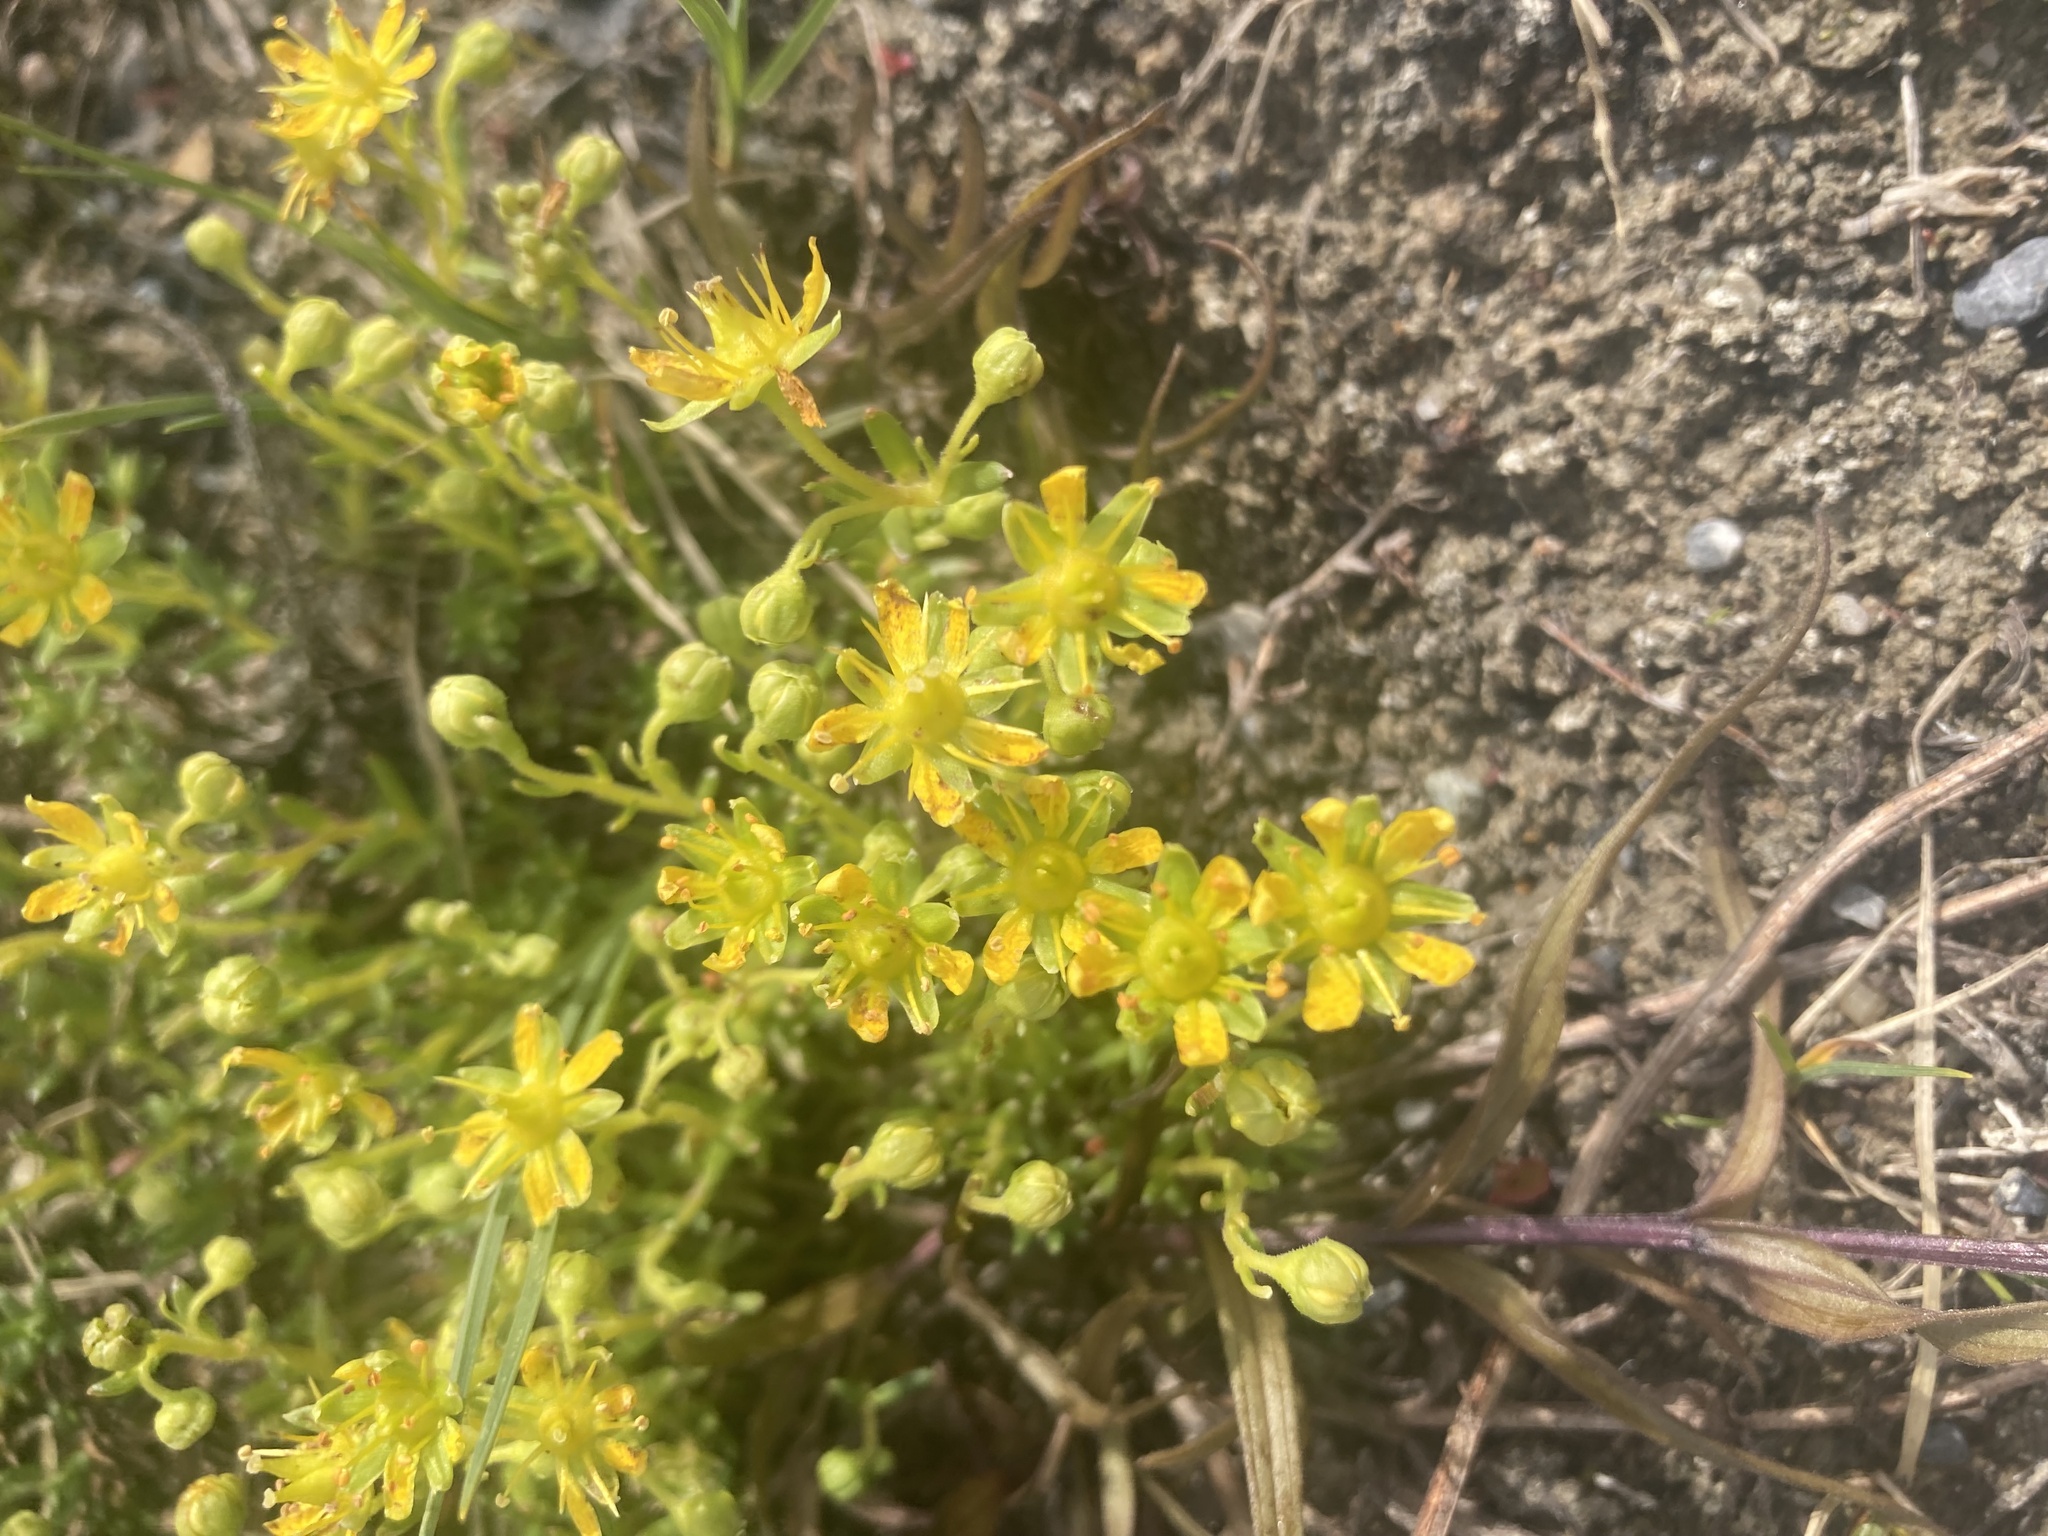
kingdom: Plantae
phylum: Tracheophyta
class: Magnoliopsida
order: Saxifragales
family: Saxifragaceae
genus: Saxifraga
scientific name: Saxifraga aizoides
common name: Yellow mountain saxifrage
